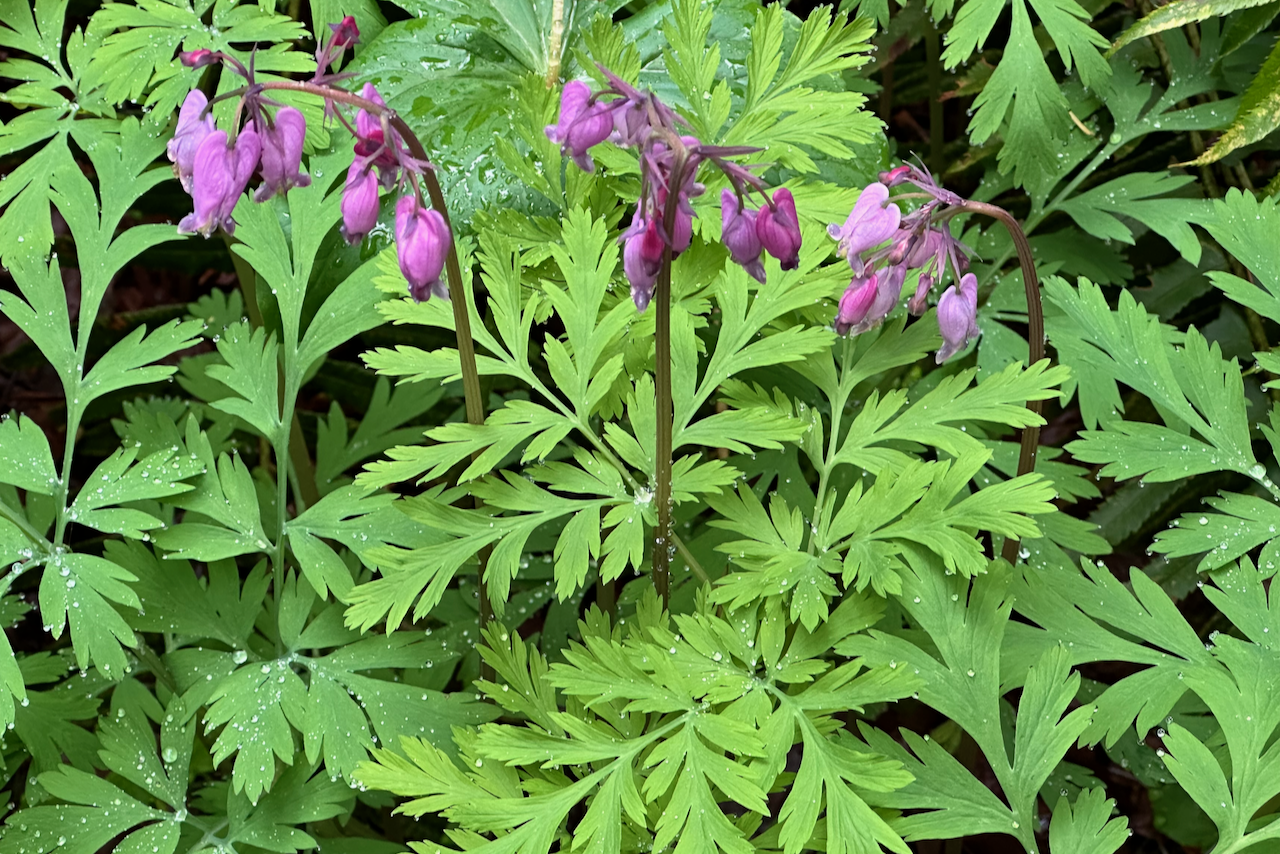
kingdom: Plantae
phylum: Tracheophyta
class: Magnoliopsida
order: Ranunculales
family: Papaveraceae
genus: Dicentra
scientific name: Dicentra formosa
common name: Bleeding-heart
